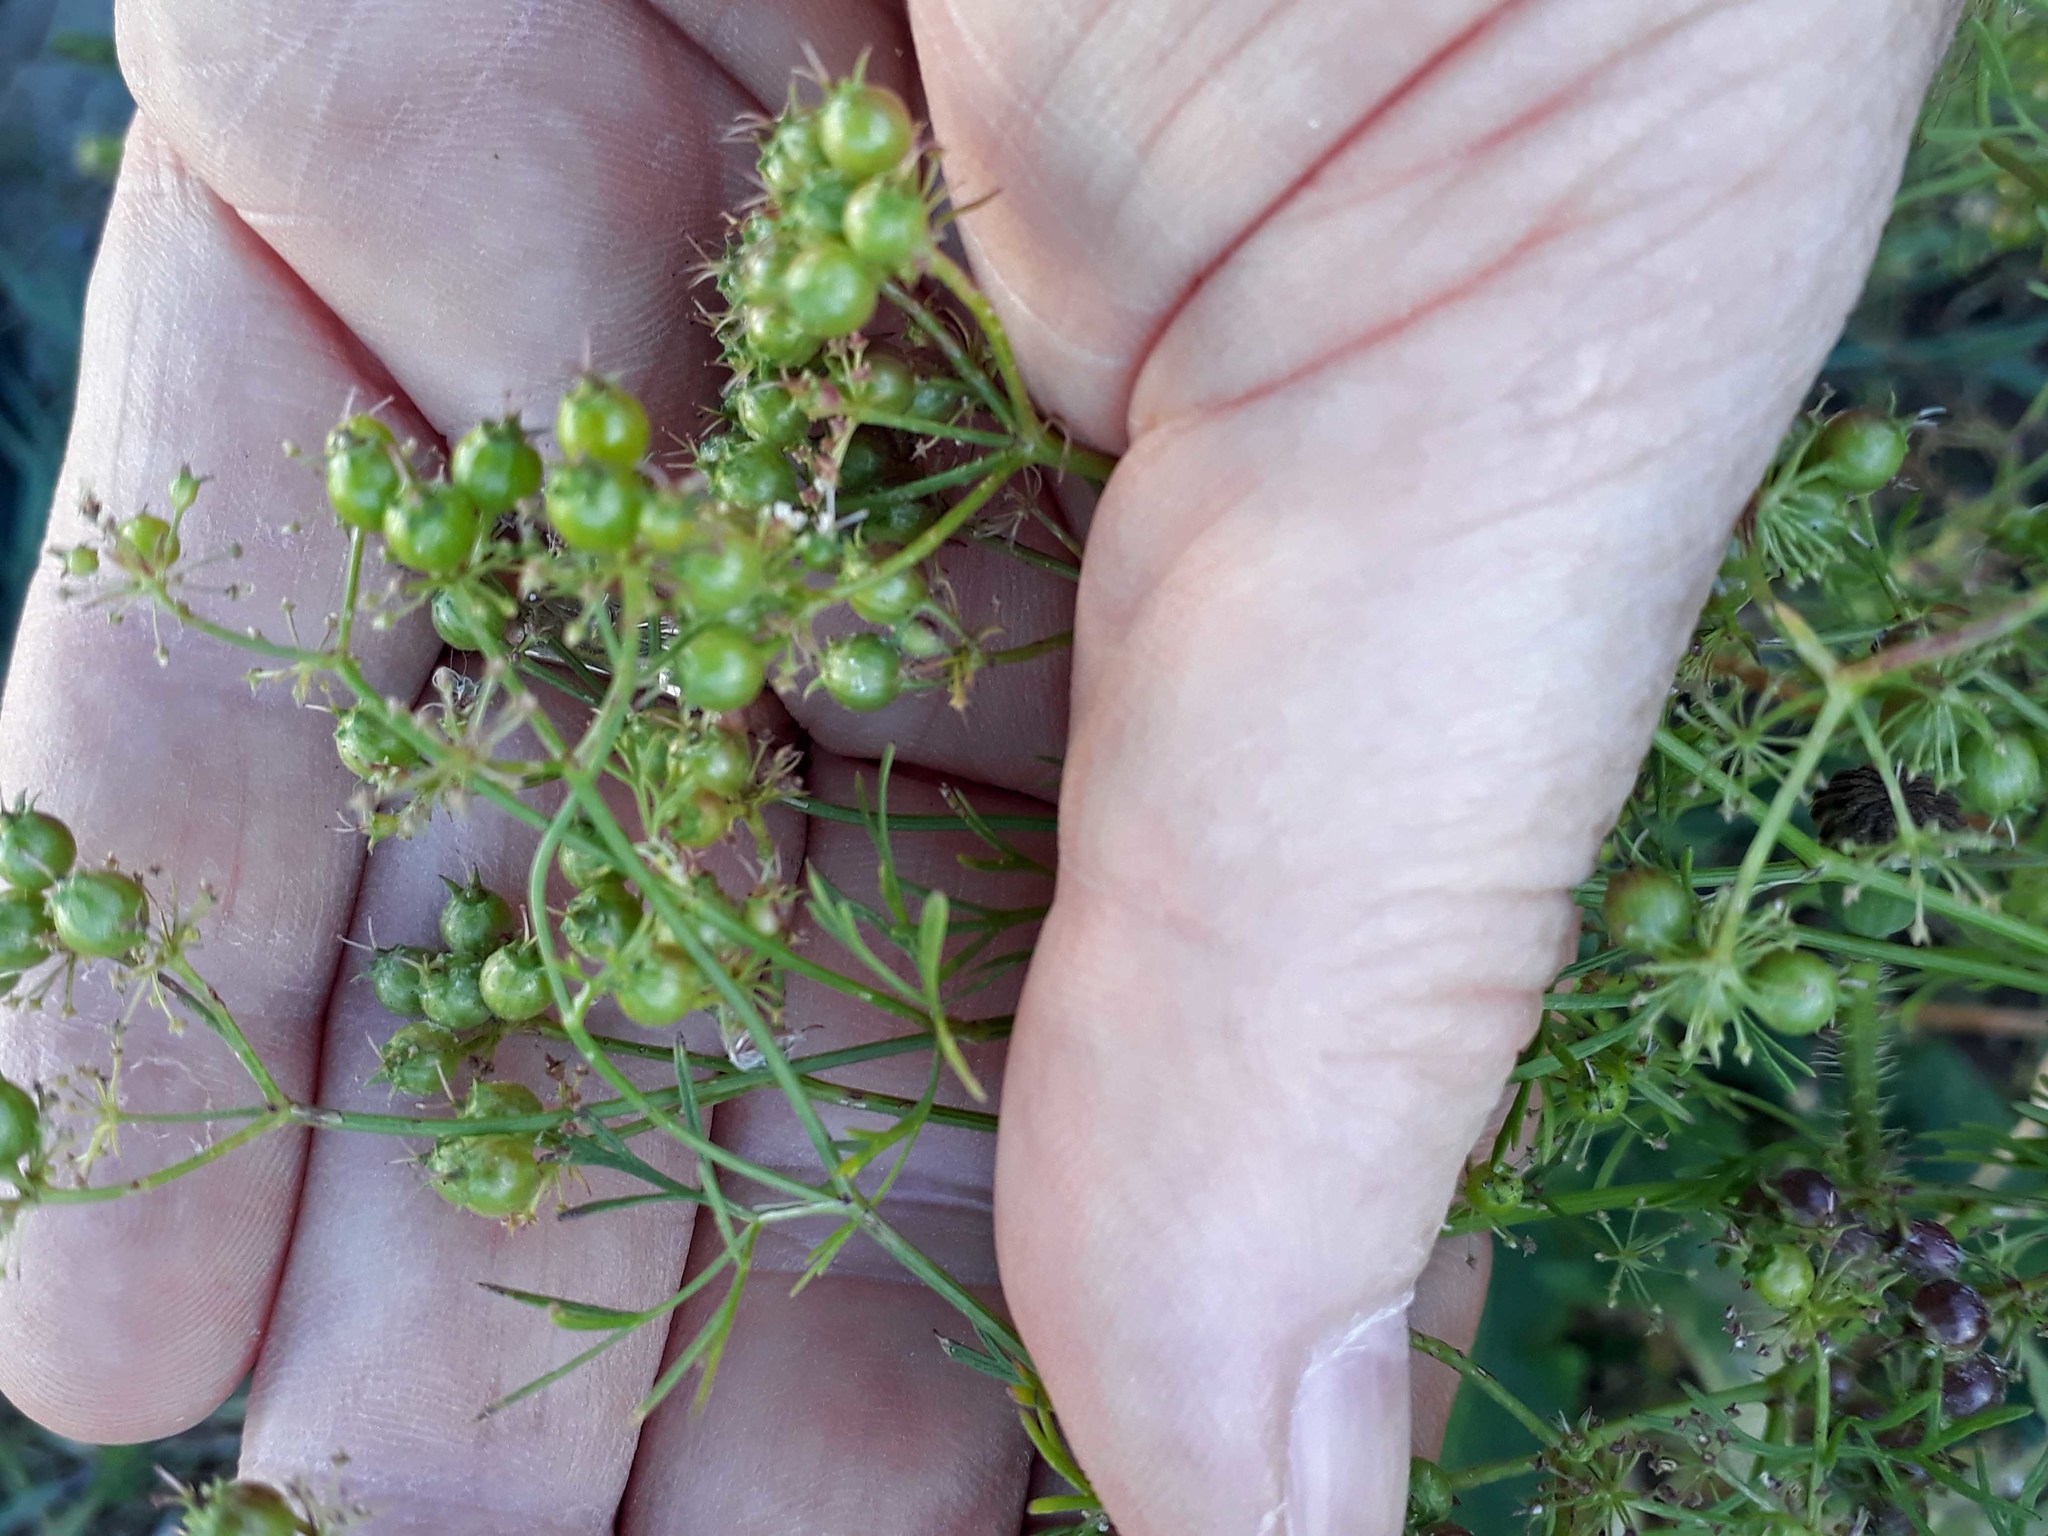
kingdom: Plantae
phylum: Tracheophyta
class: Magnoliopsida
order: Apiales
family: Apiaceae
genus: Coriandrum
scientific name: Coriandrum sativum
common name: Coriander
